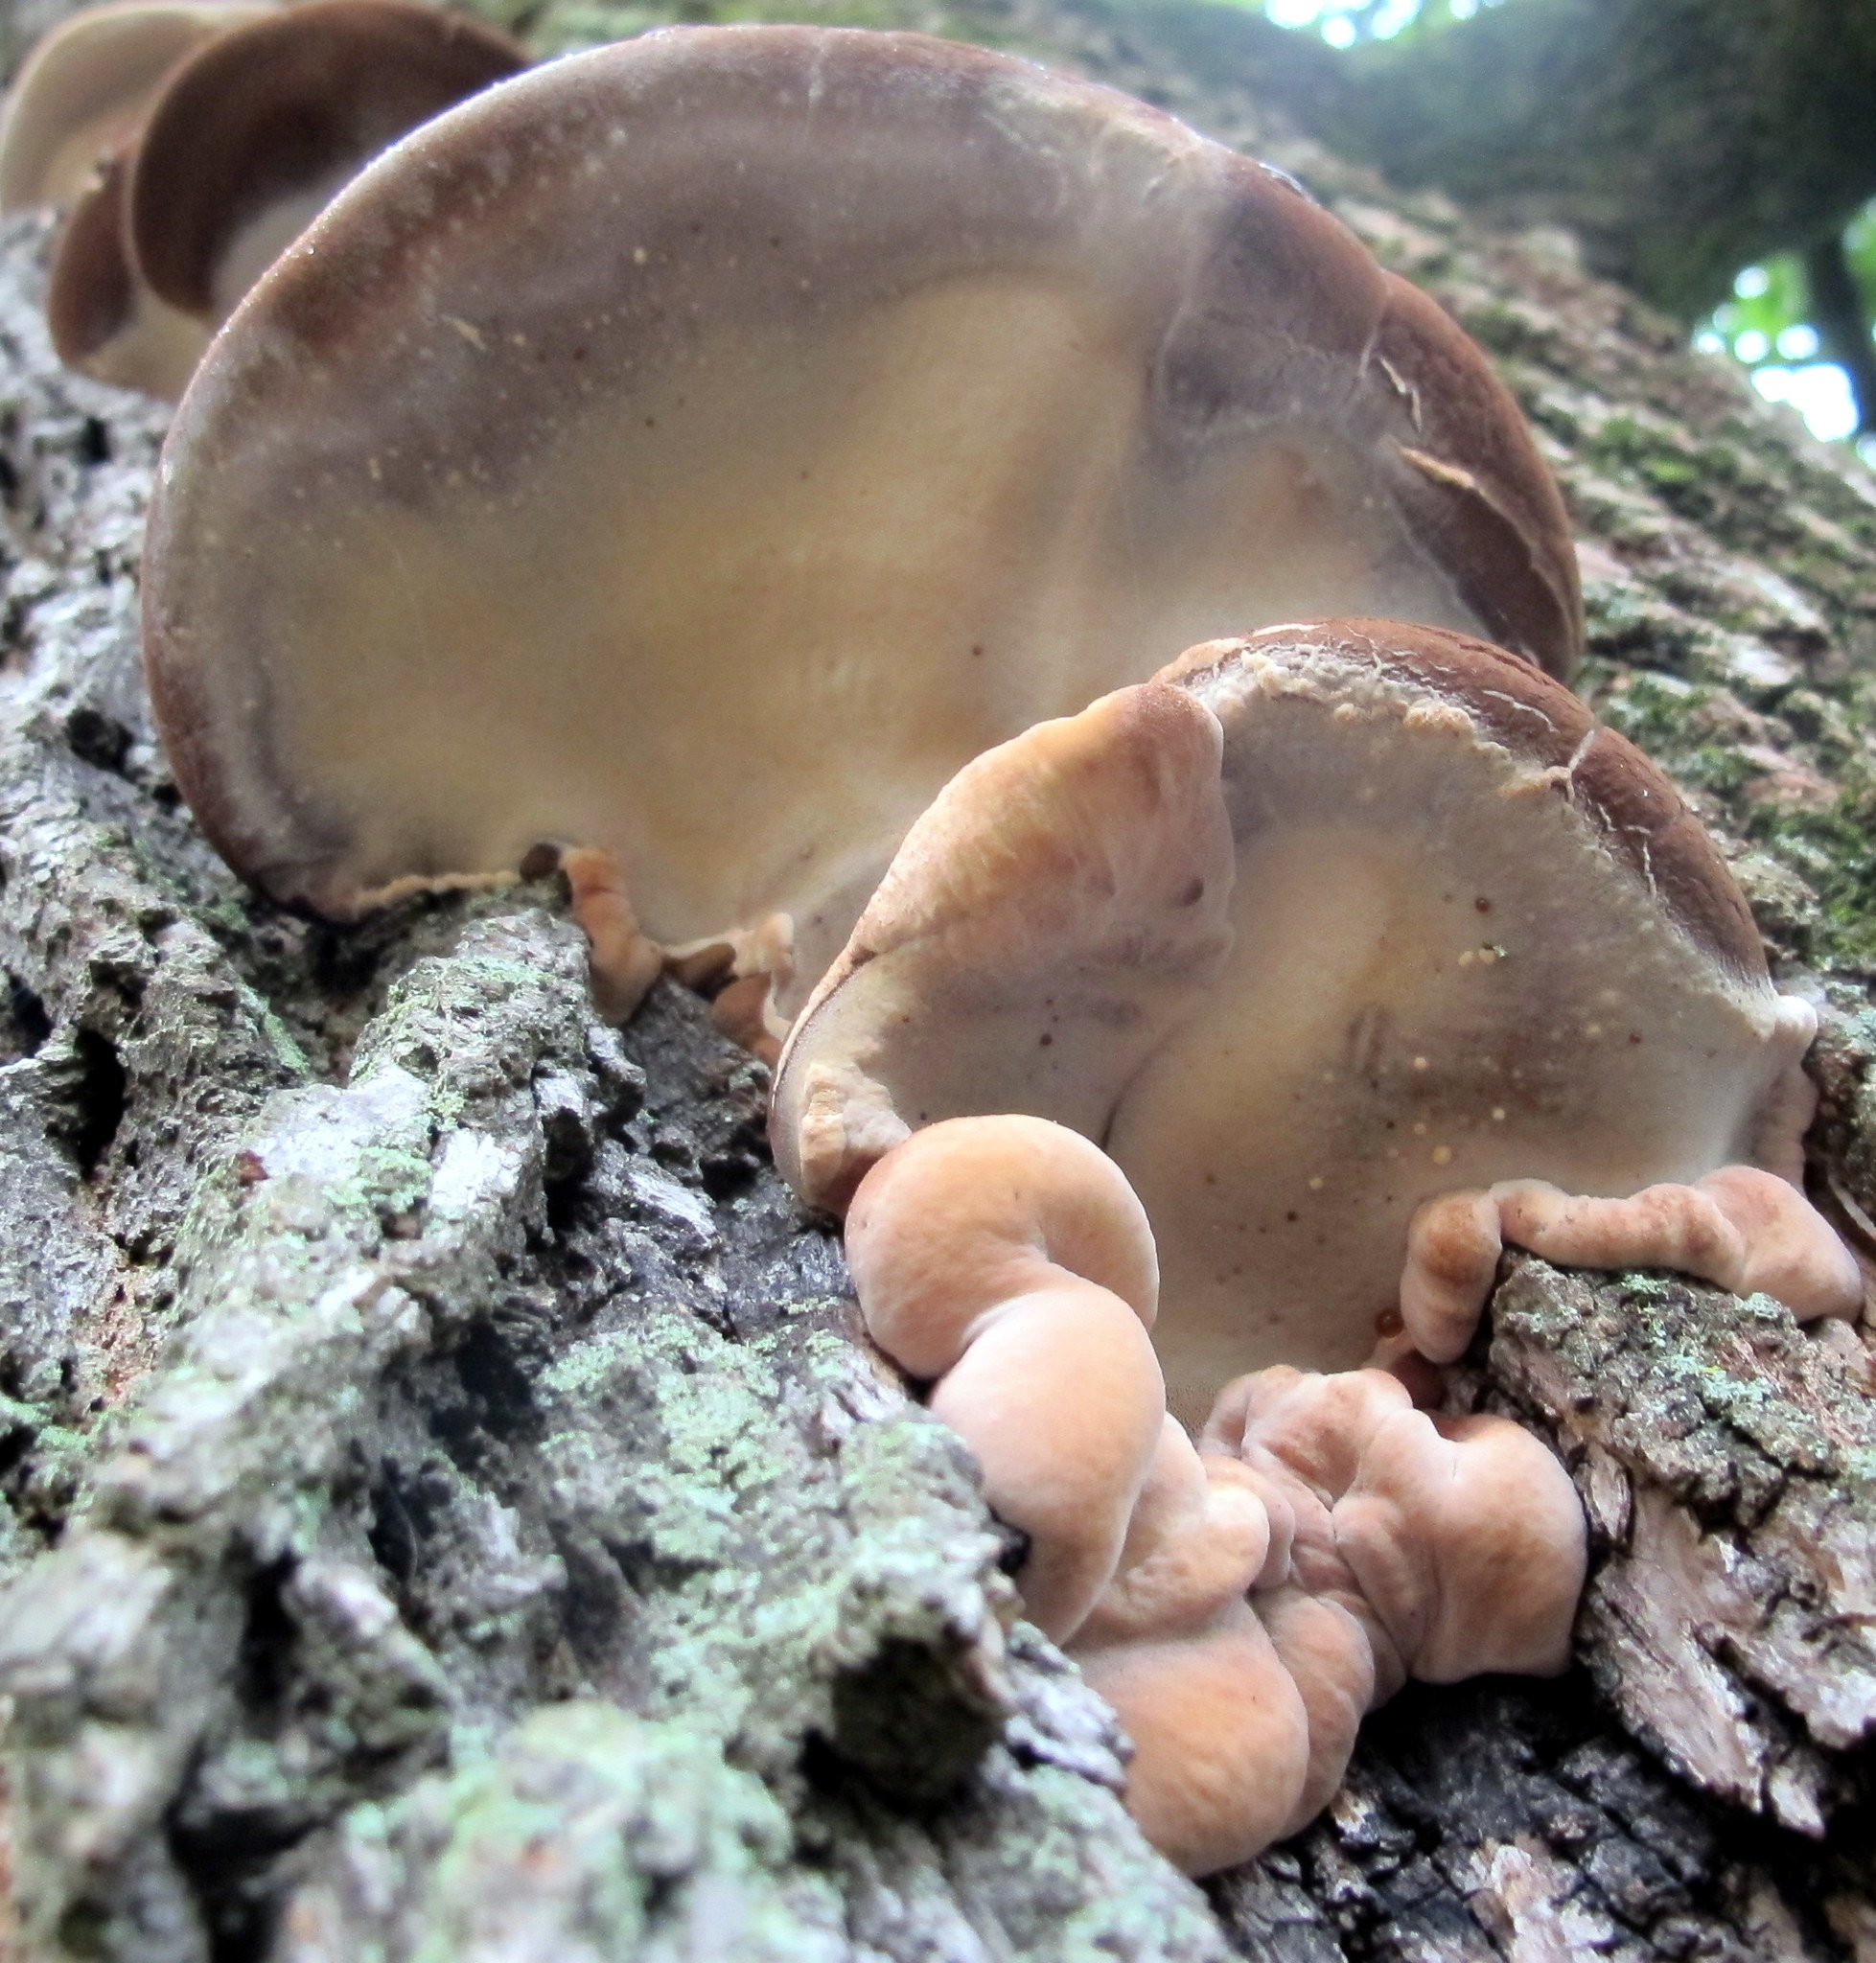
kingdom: Fungi
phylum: Basidiomycota
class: Agaricomycetes
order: Polyporales
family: Ischnodermataceae
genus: Ischnoderma
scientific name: Ischnoderma resinosum
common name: Resinous polypore
